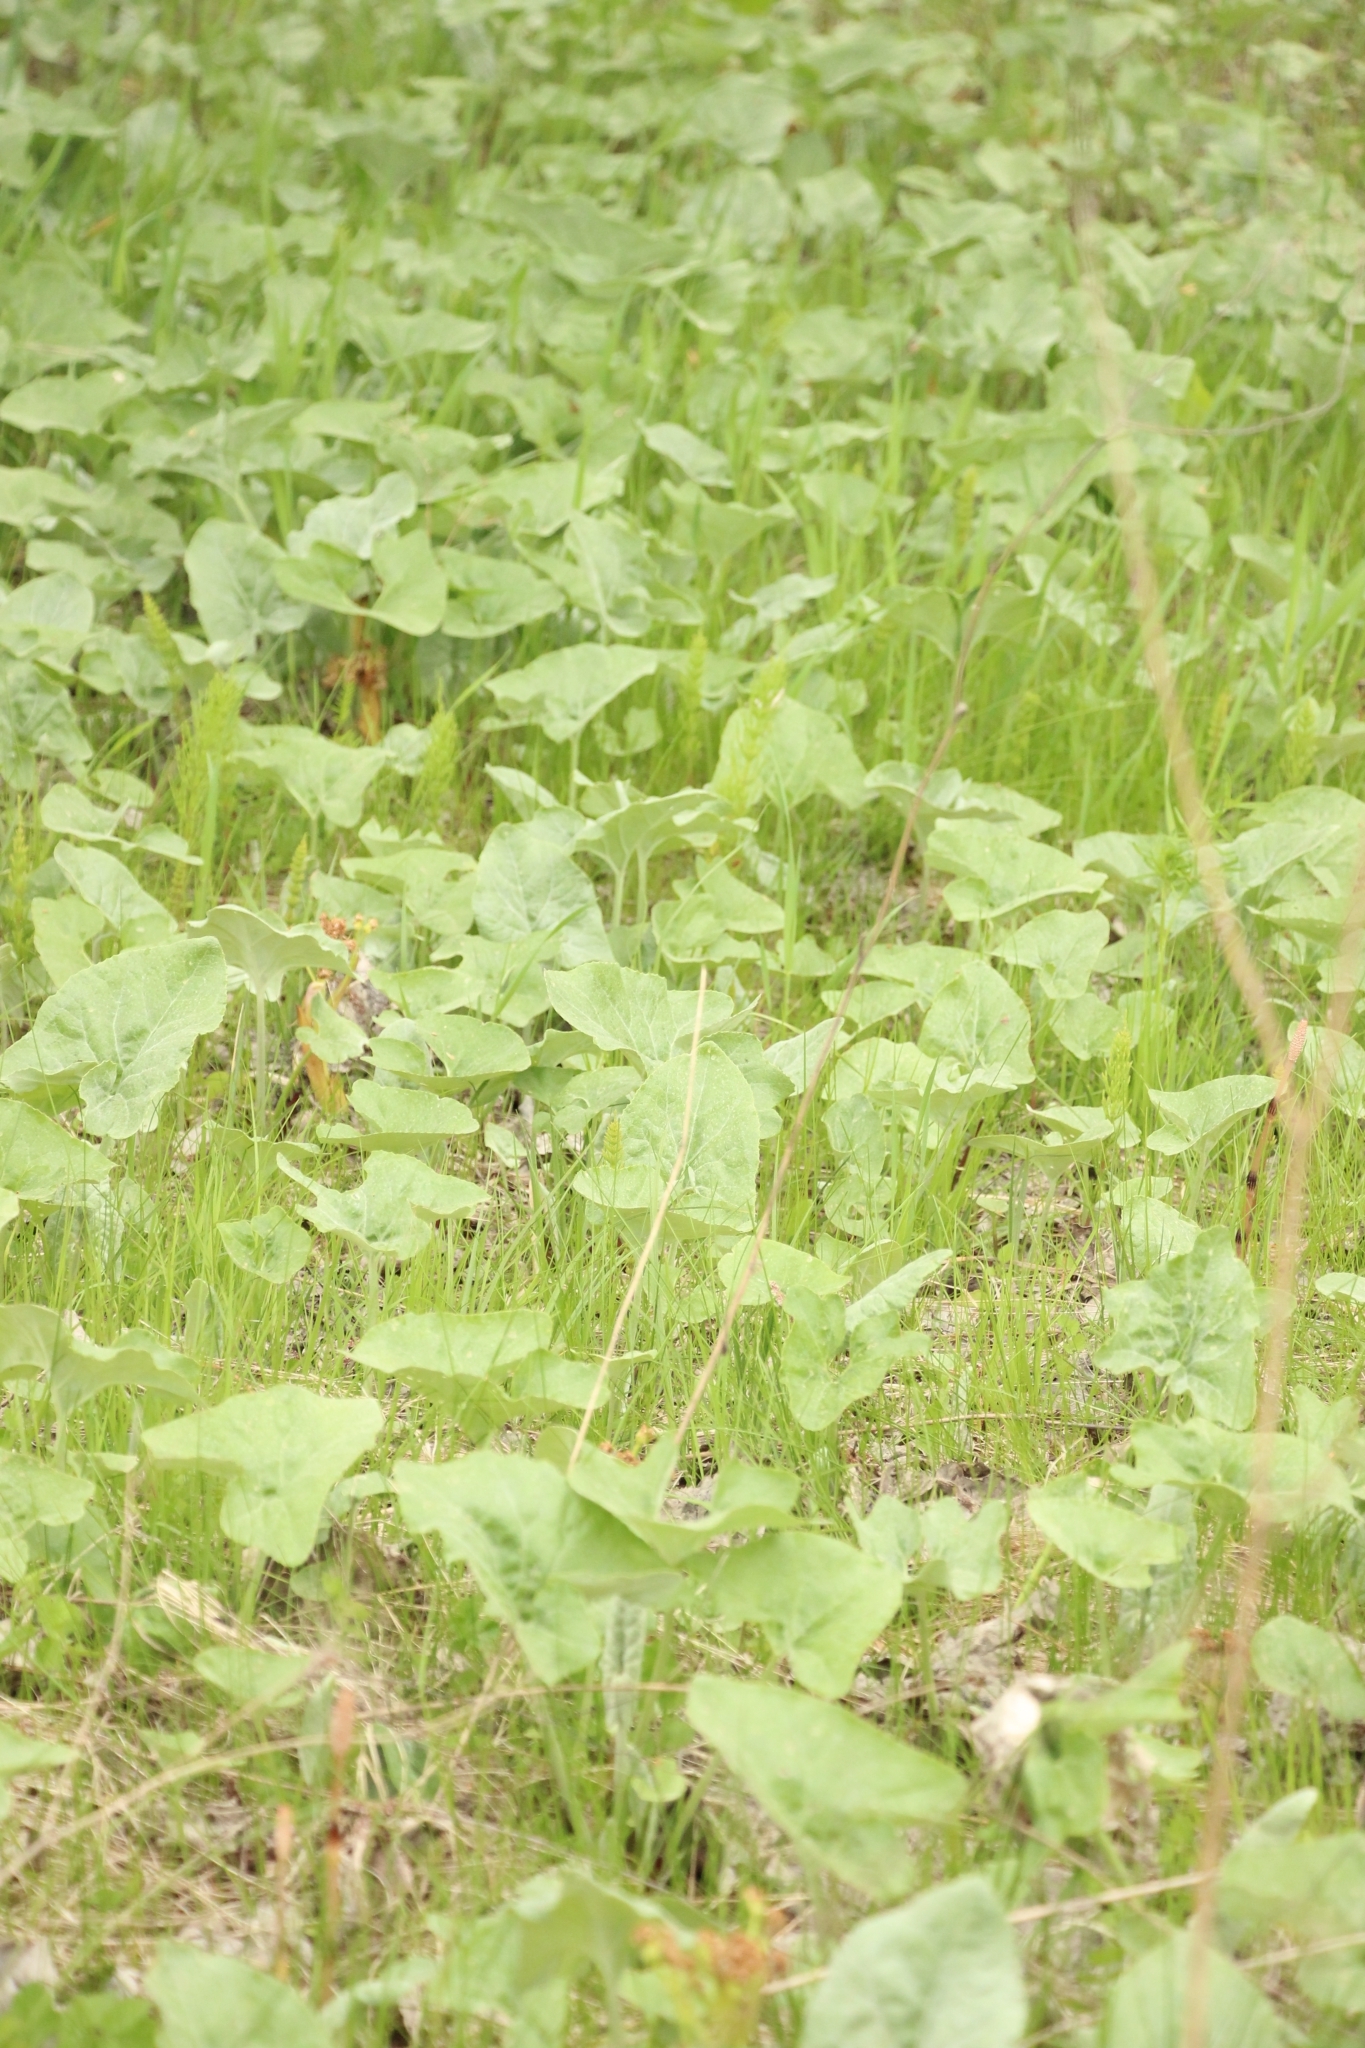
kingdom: Plantae
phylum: Tracheophyta
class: Magnoliopsida
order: Asterales
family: Asteraceae
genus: Petasites
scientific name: Petasites spurius
